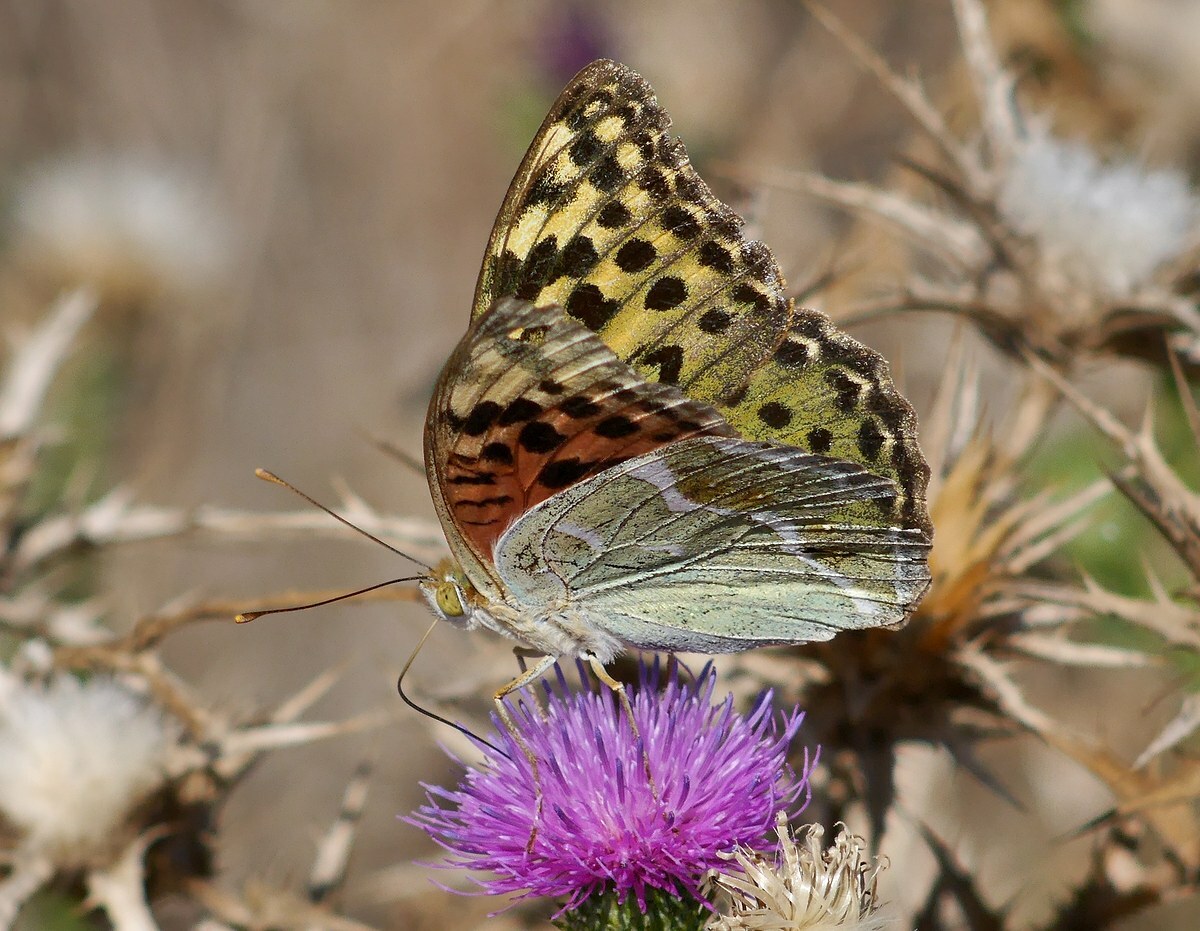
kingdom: Animalia
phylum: Arthropoda
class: Insecta
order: Lepidoptera
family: Nymphalidae
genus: Damora
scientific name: Damora pandora
